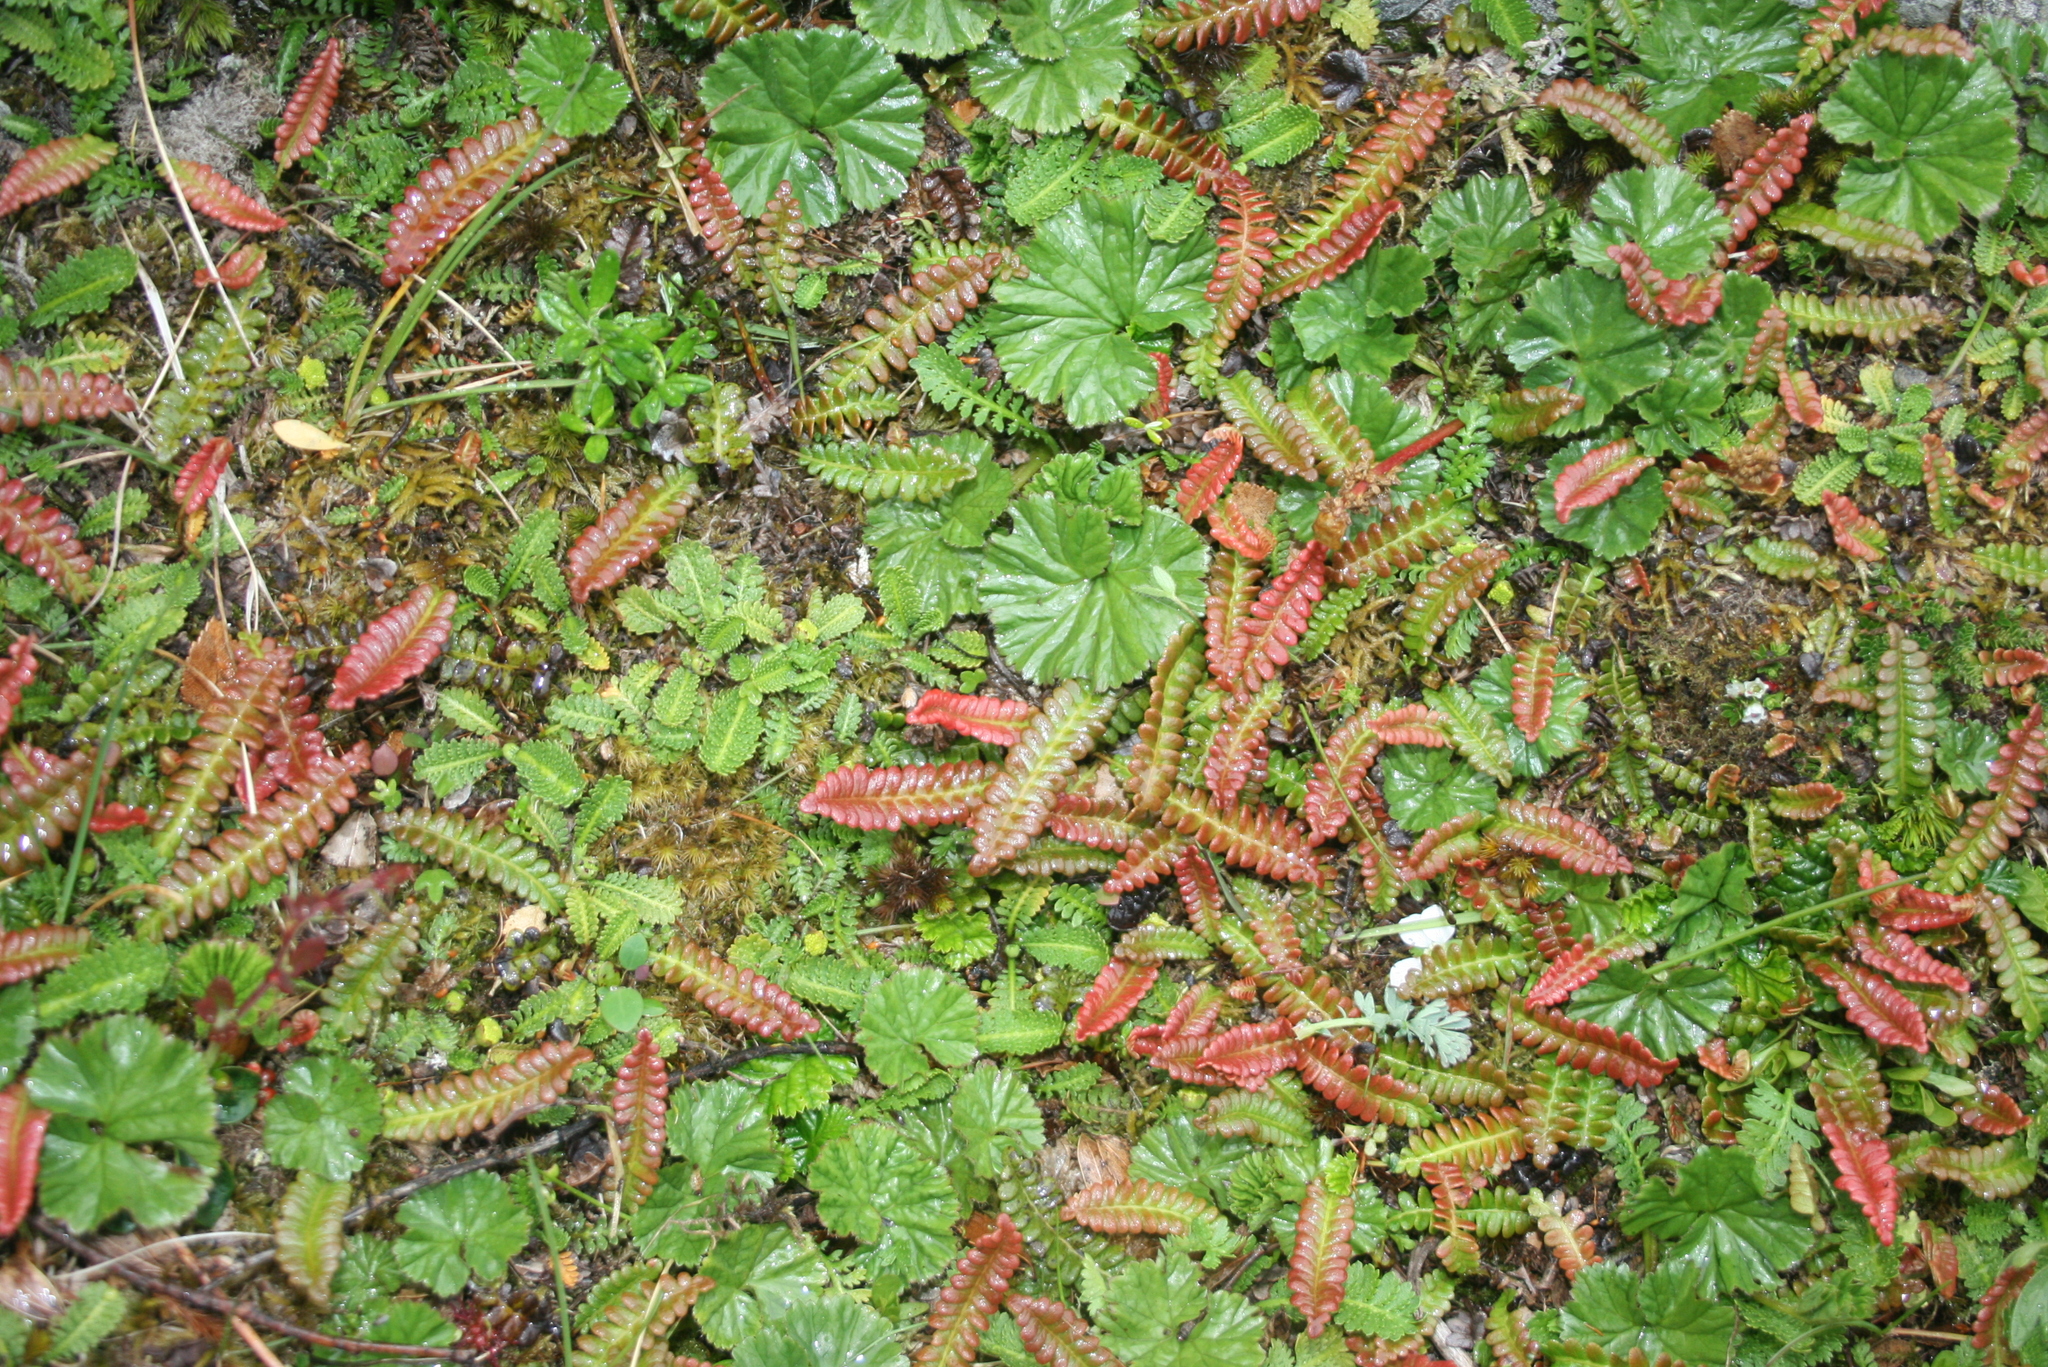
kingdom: Plantae
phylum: Tracheophyta
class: Magnoliopsida
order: Gunnerales
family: Gunneraceae
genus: Gunnera
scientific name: Gunnera magellanica
